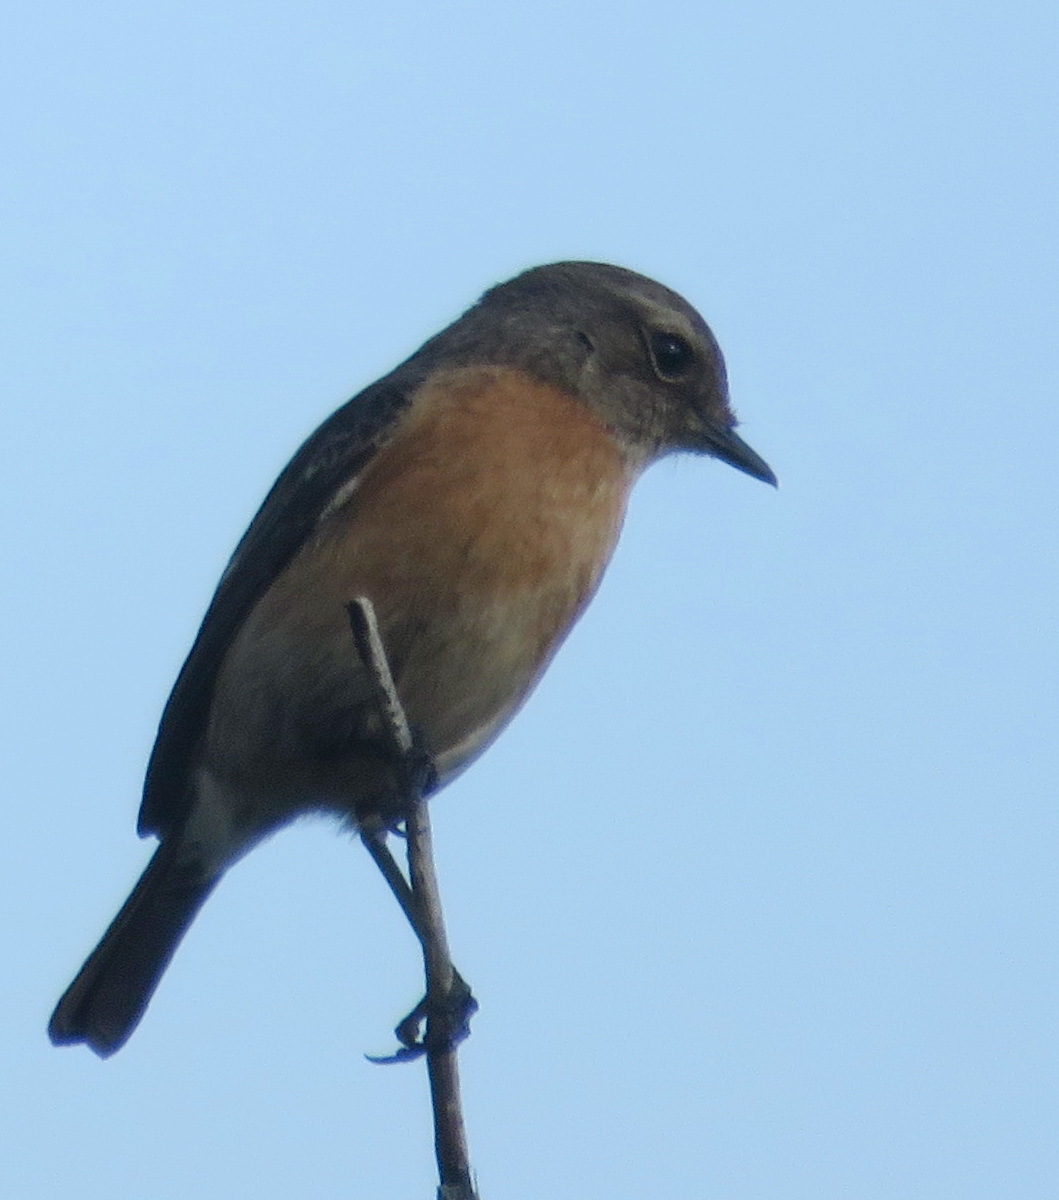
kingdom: Animalia
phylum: Chordata
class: Aves
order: Passeriformes
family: Muscicapidae
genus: Saxicola
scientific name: Saxicola torquatus
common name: African stonechat
